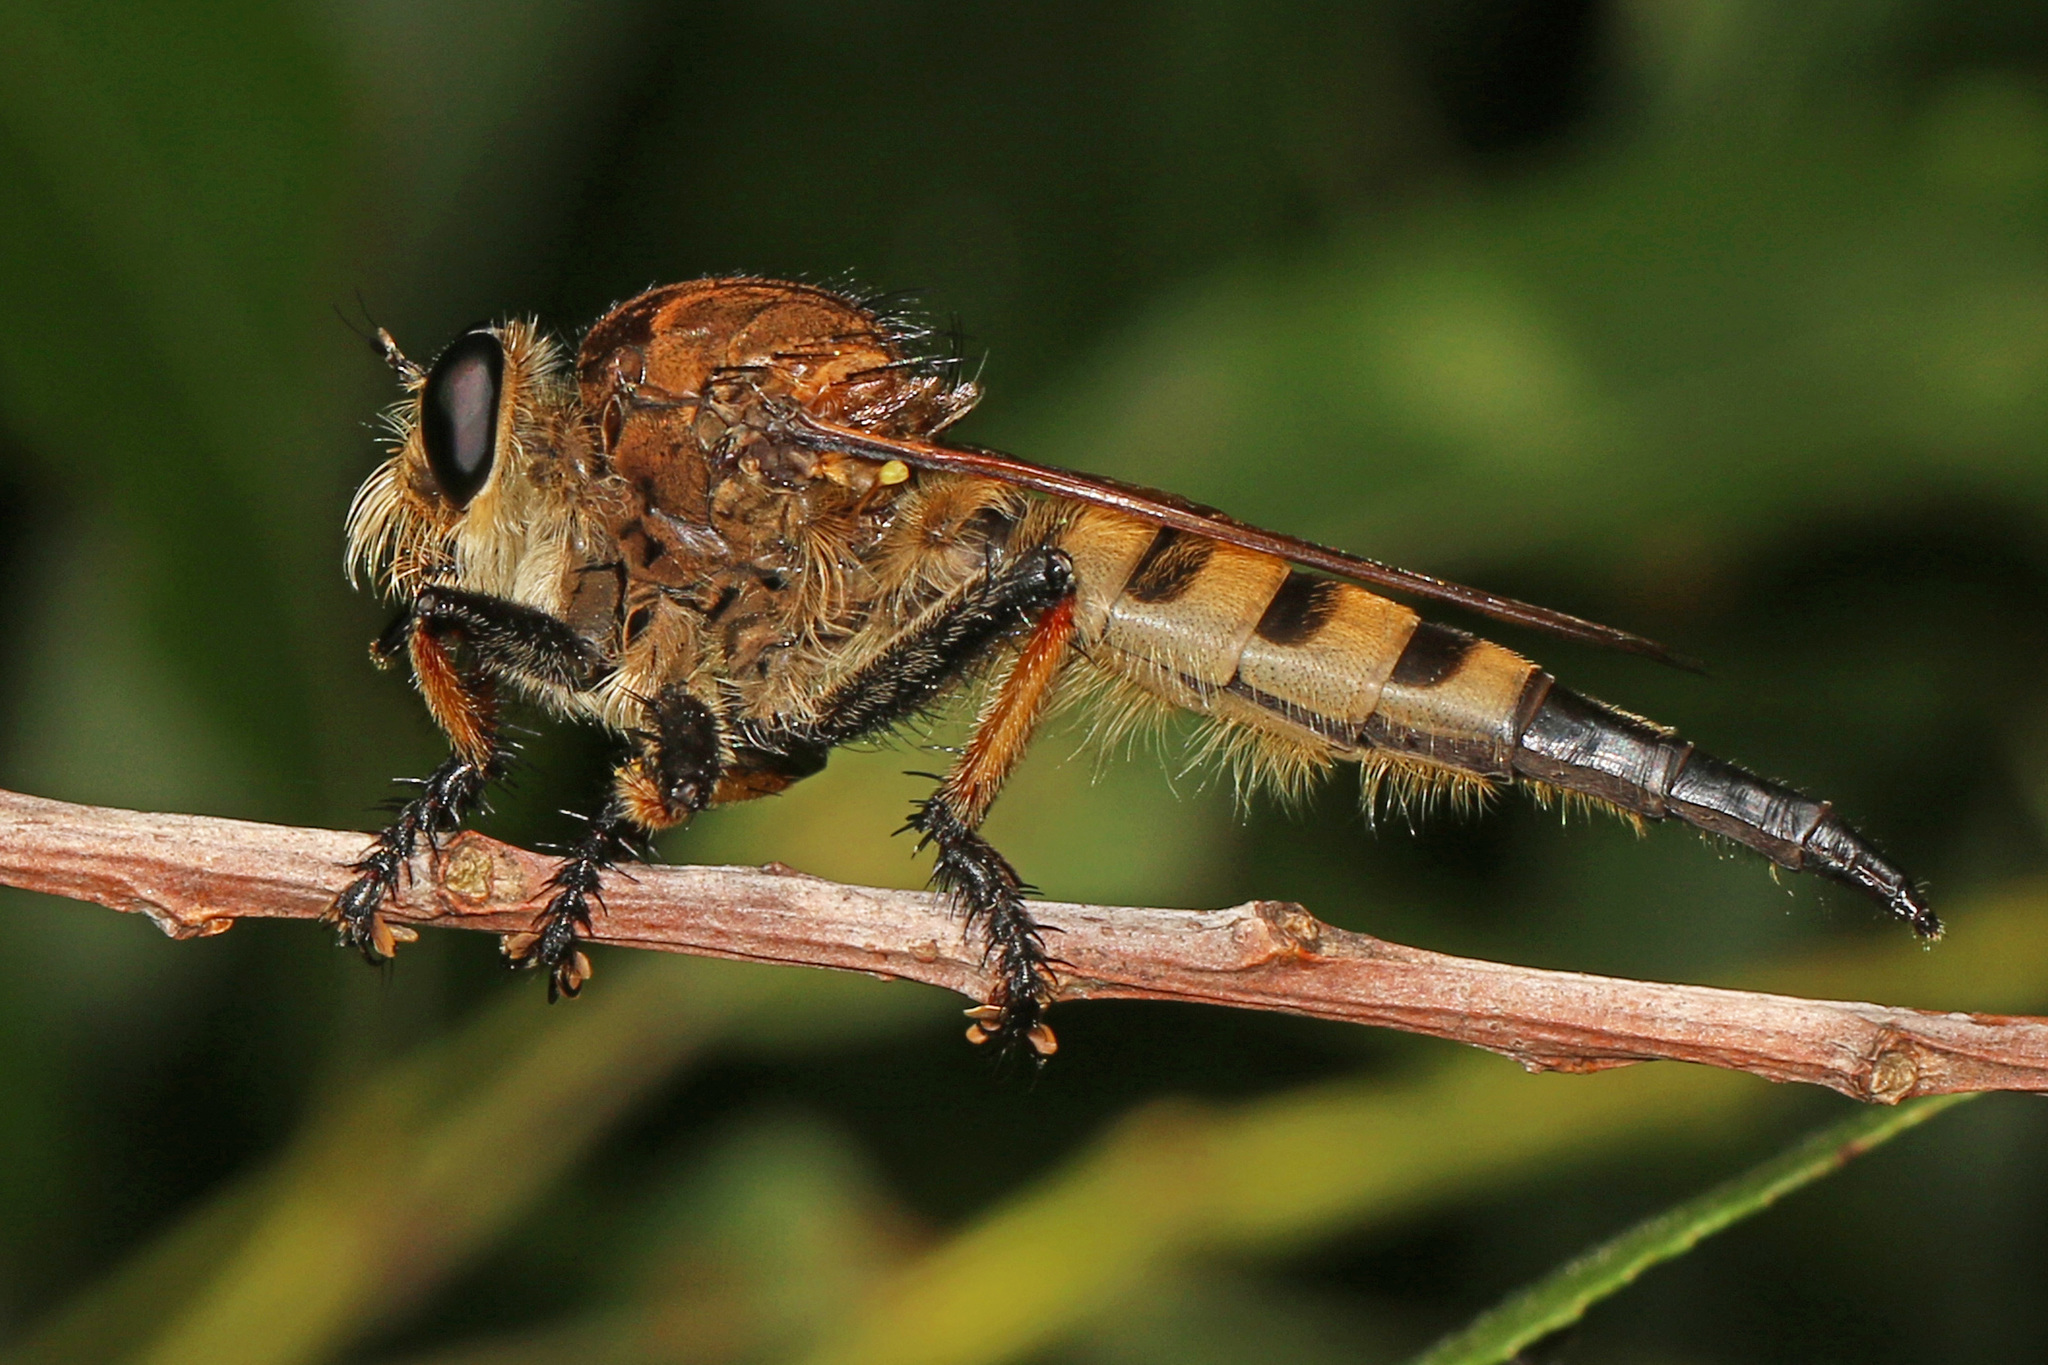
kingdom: Animalia
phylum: Arthropoda
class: Insecta
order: Diptera
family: Asilidae
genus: Promachus
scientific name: Promachus rufipes
